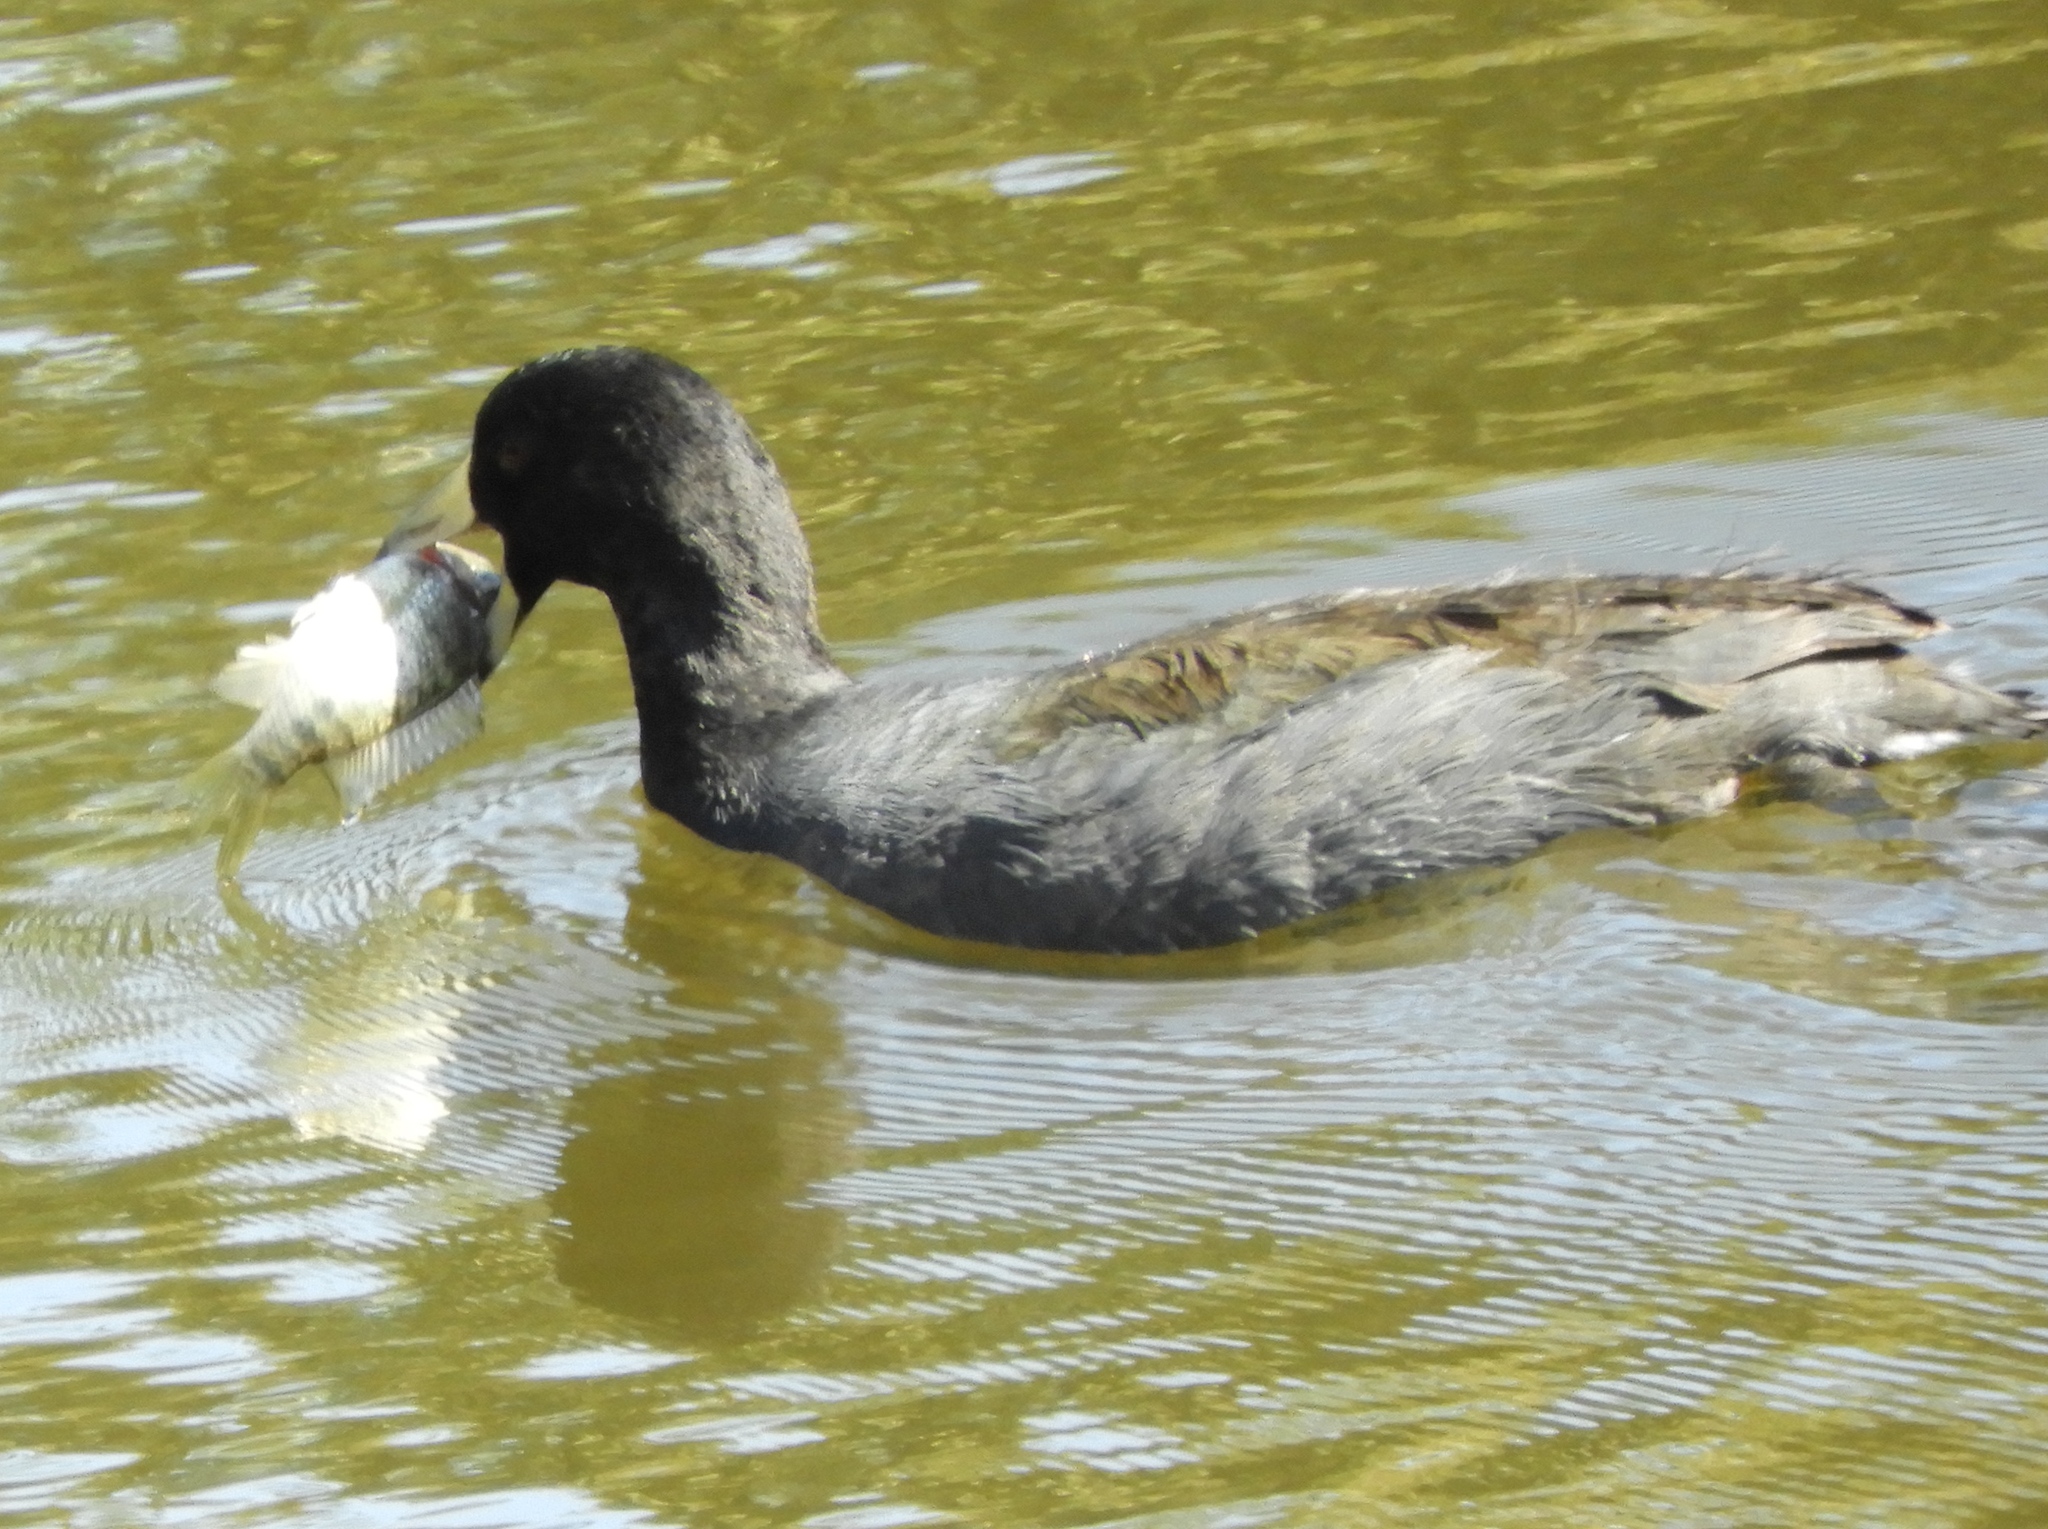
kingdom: Animalia
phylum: Chordata
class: Aves
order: Gruiformes
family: Rallidae
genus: Fulica
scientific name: Fulica americana
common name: American coot
